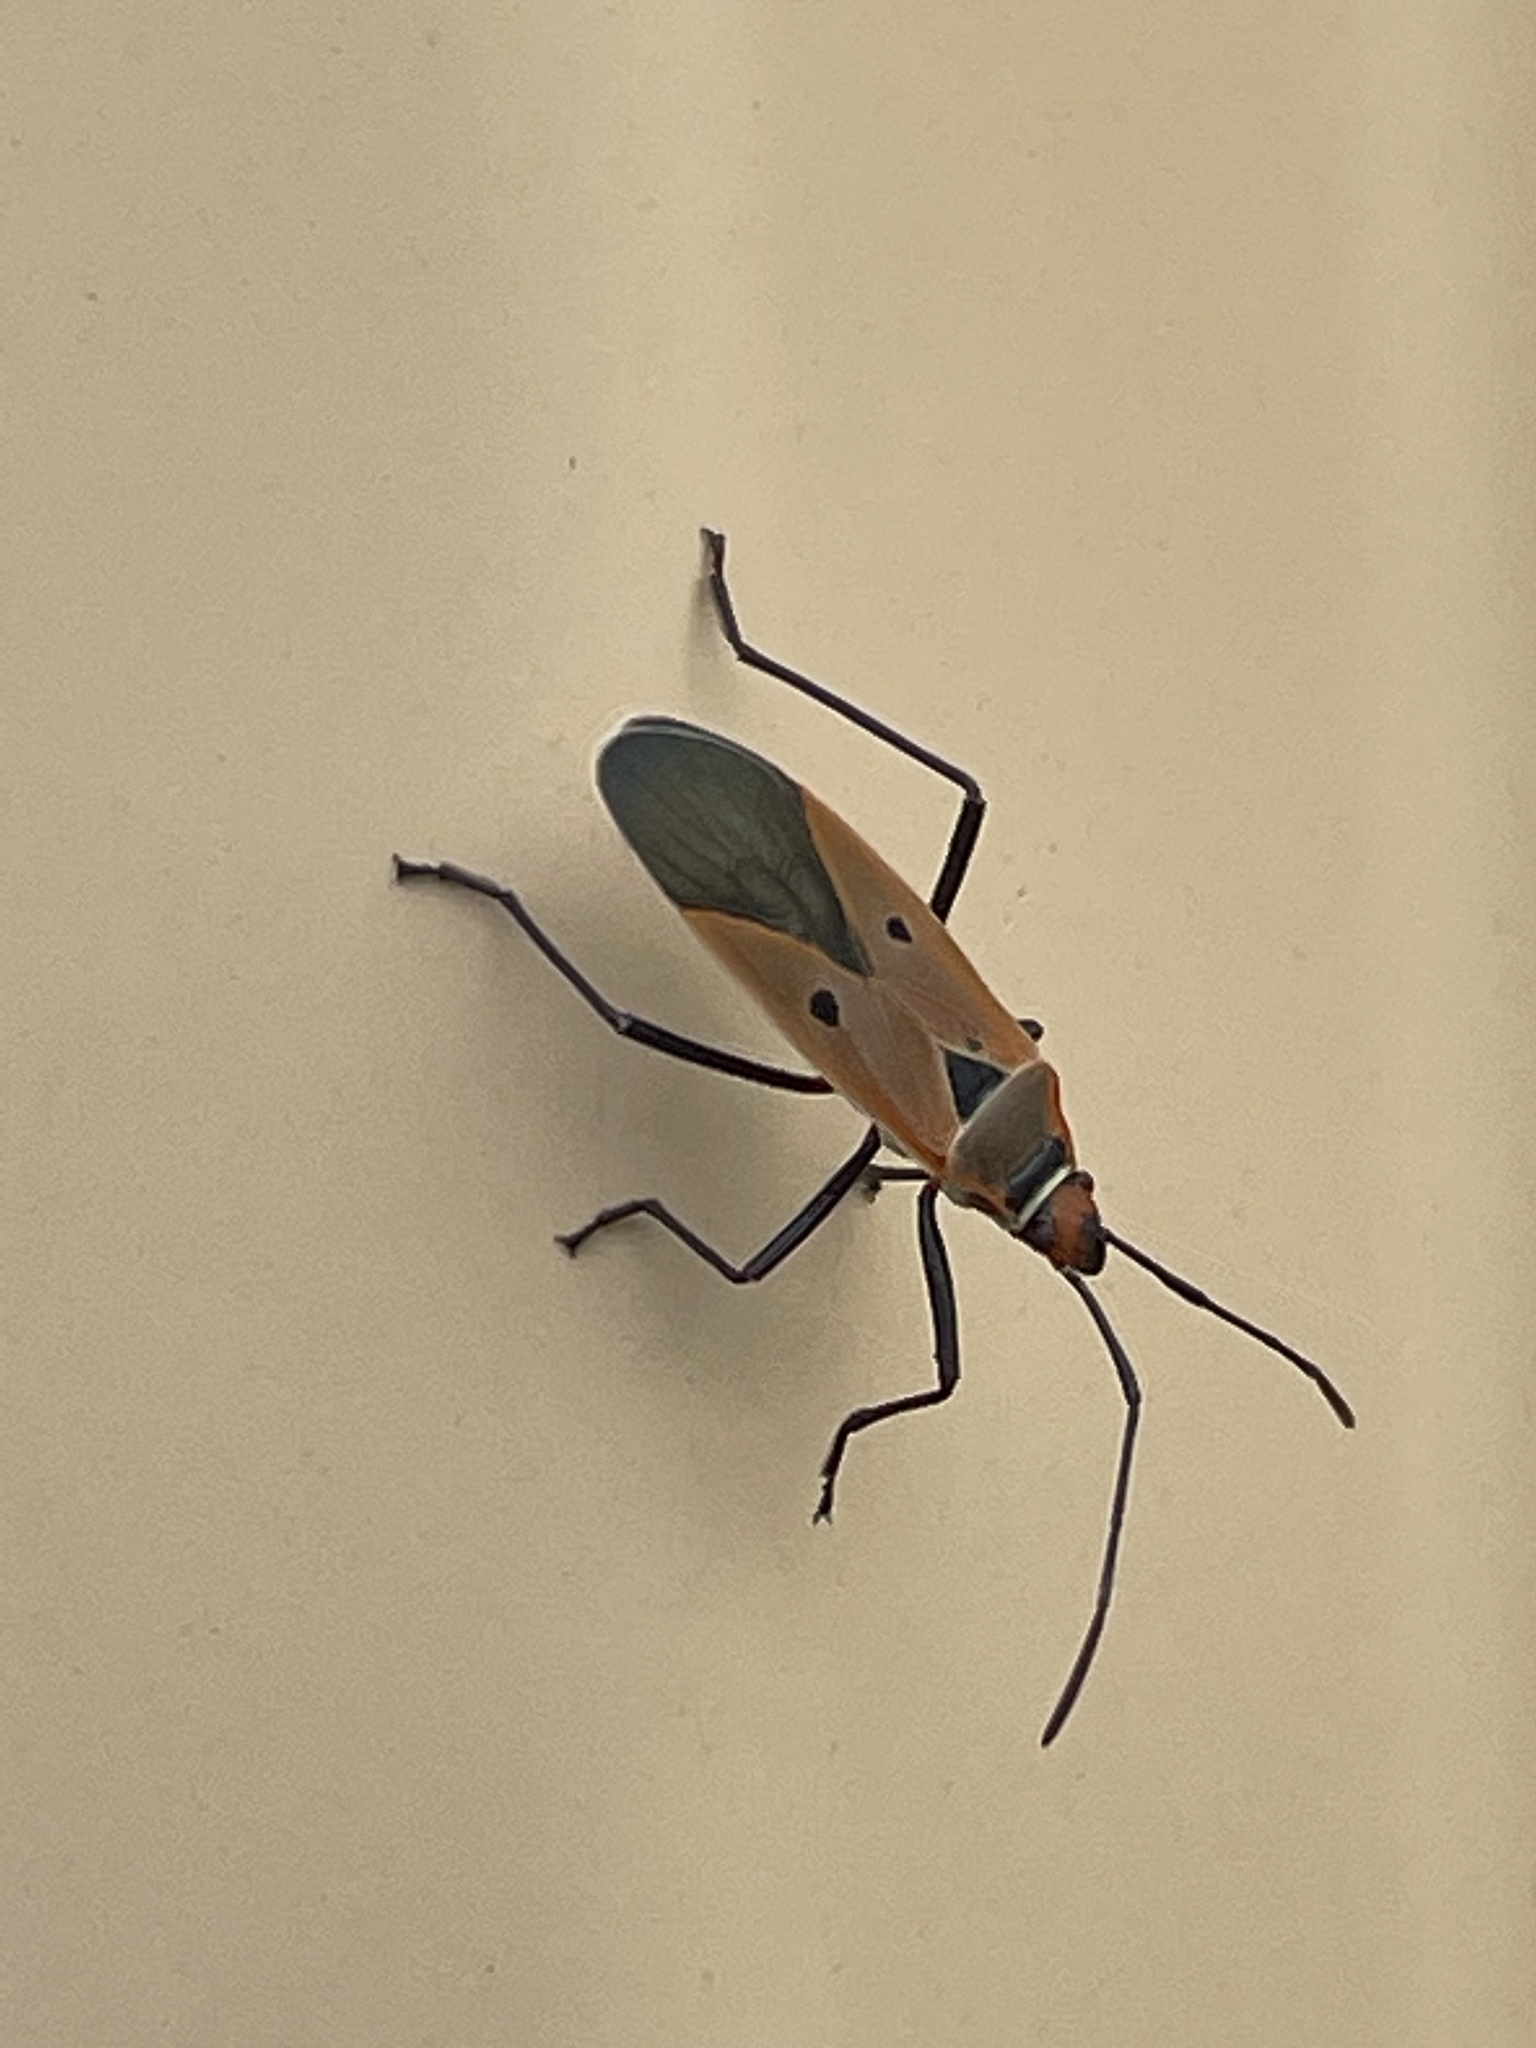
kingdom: Animalia
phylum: Arthropoda
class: Insecta
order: Hemiptera
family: Pyrrhocoridae
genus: Dysdercus
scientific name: Dysdercus sidae
